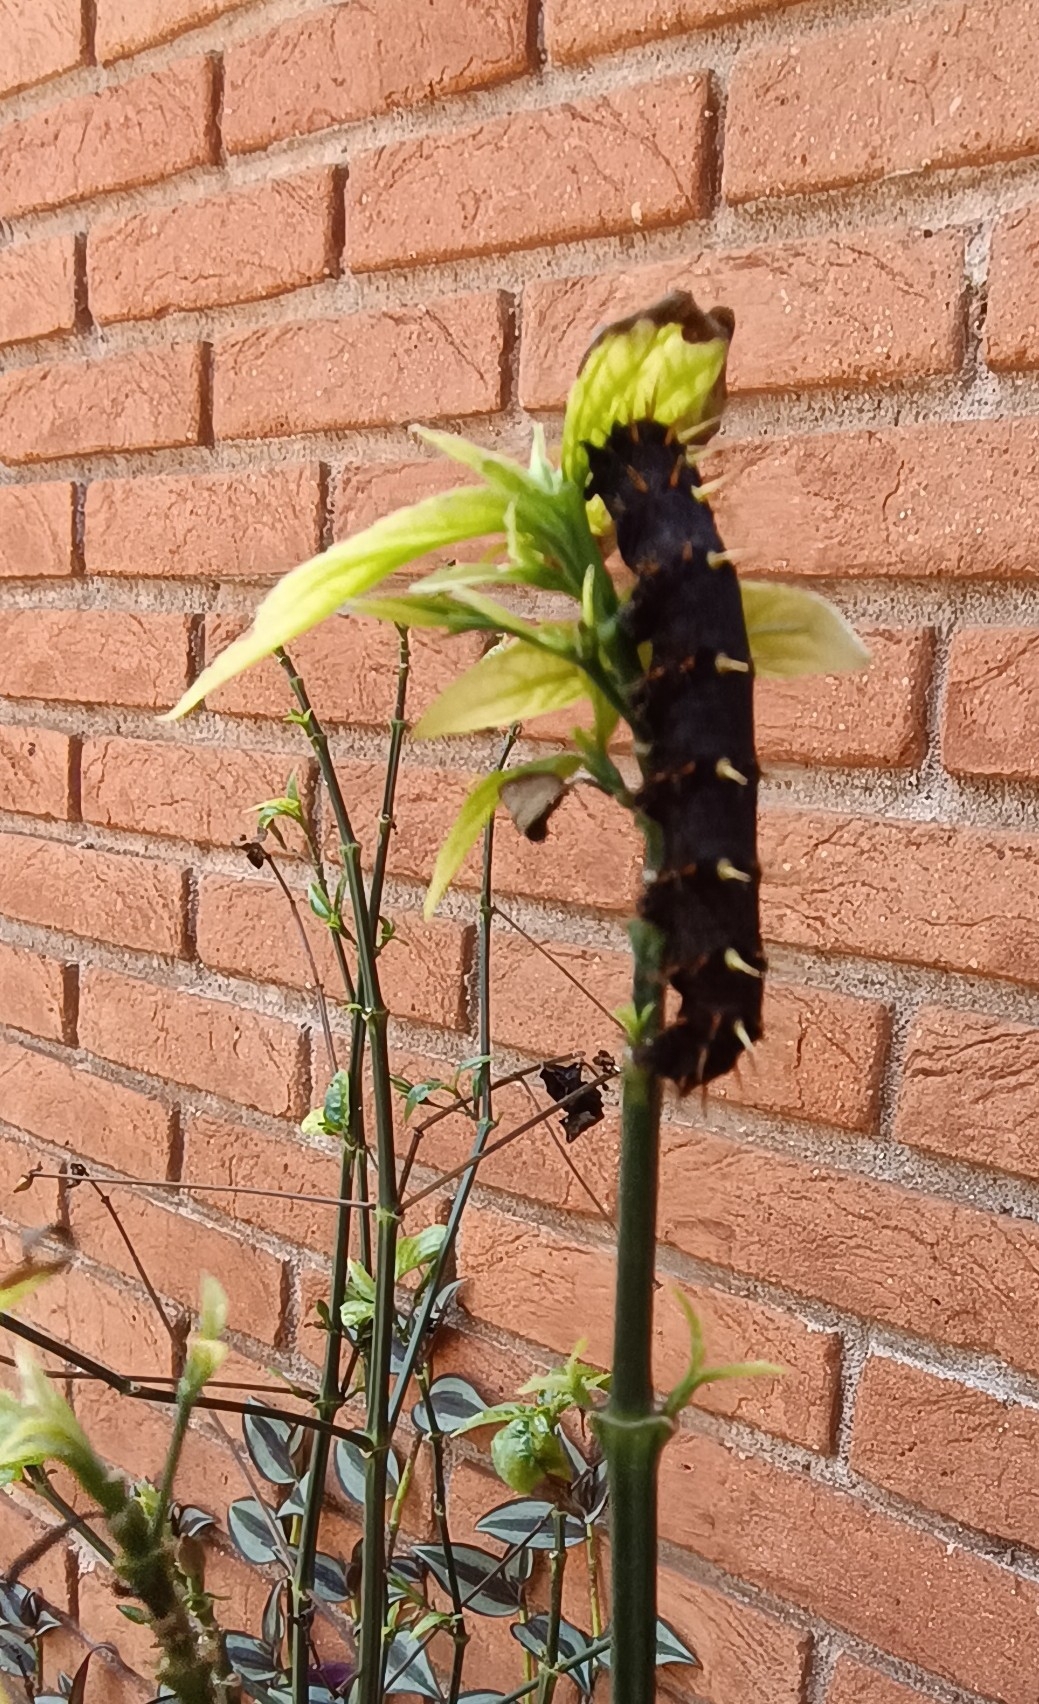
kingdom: Animalia
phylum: Arthropoda
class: Insecta
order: Lepidoptera
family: Nymphalidae
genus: Siproeta
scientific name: Siproeta epaphus
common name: Rusty-tipped page
